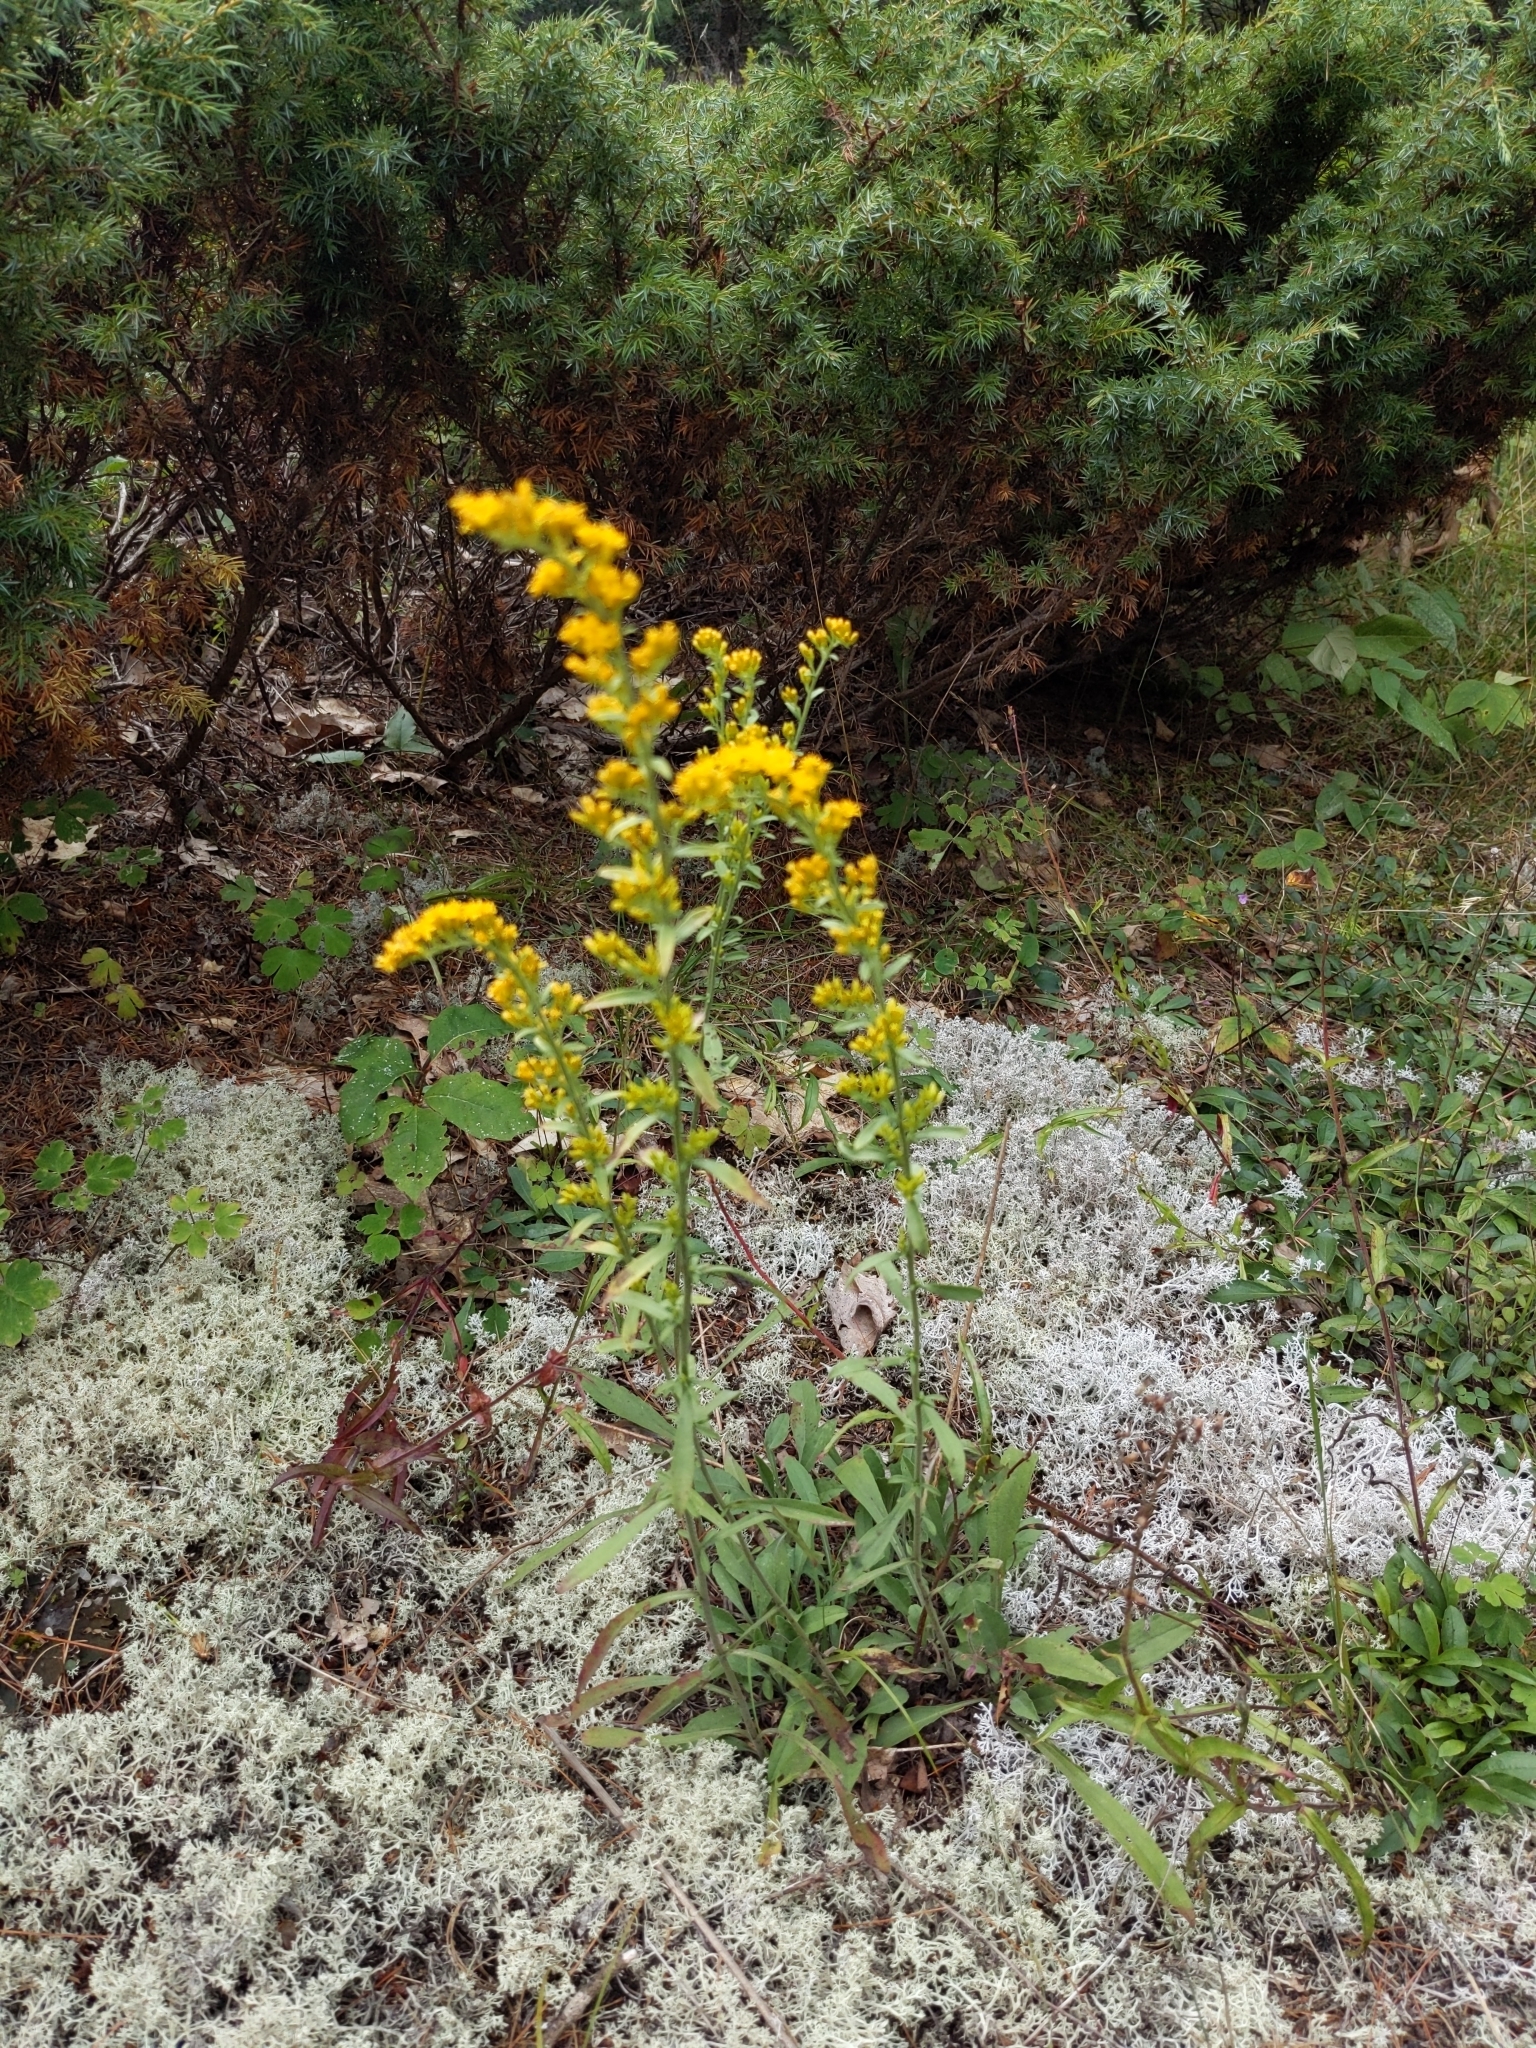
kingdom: Plantae
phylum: Tracheophyta
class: Magnoliopsida
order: Asterales
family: Asteraceae
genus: Solidago
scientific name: Solidago nemoralis
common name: Grey goldenrod
